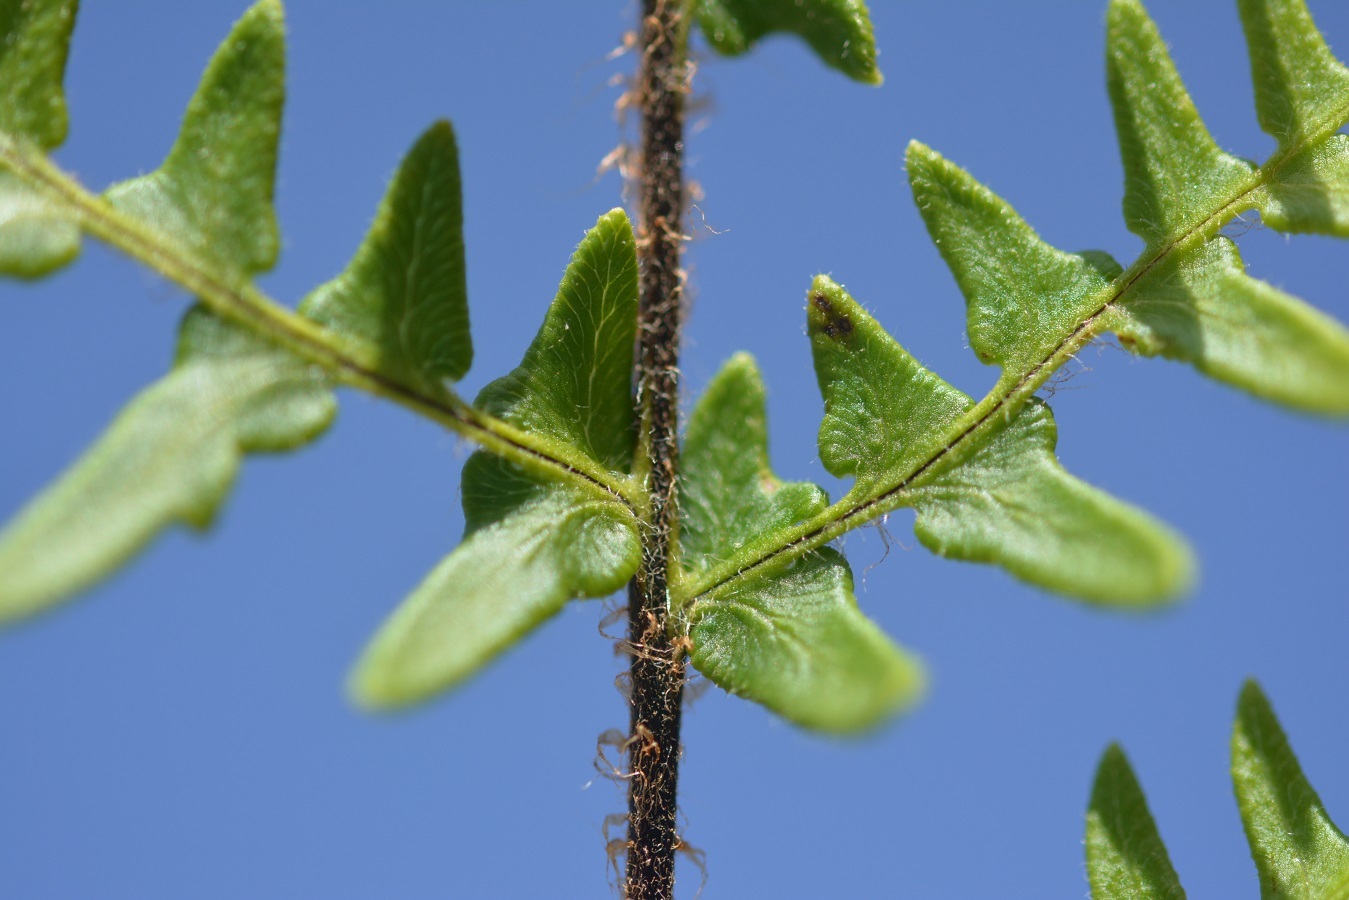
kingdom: Plantae
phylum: Tracheophyta
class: Polypodiopsida
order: Polypodiales
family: Pteridaceae
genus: Cheiloplecton
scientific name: Cheiloplecton rigidum
